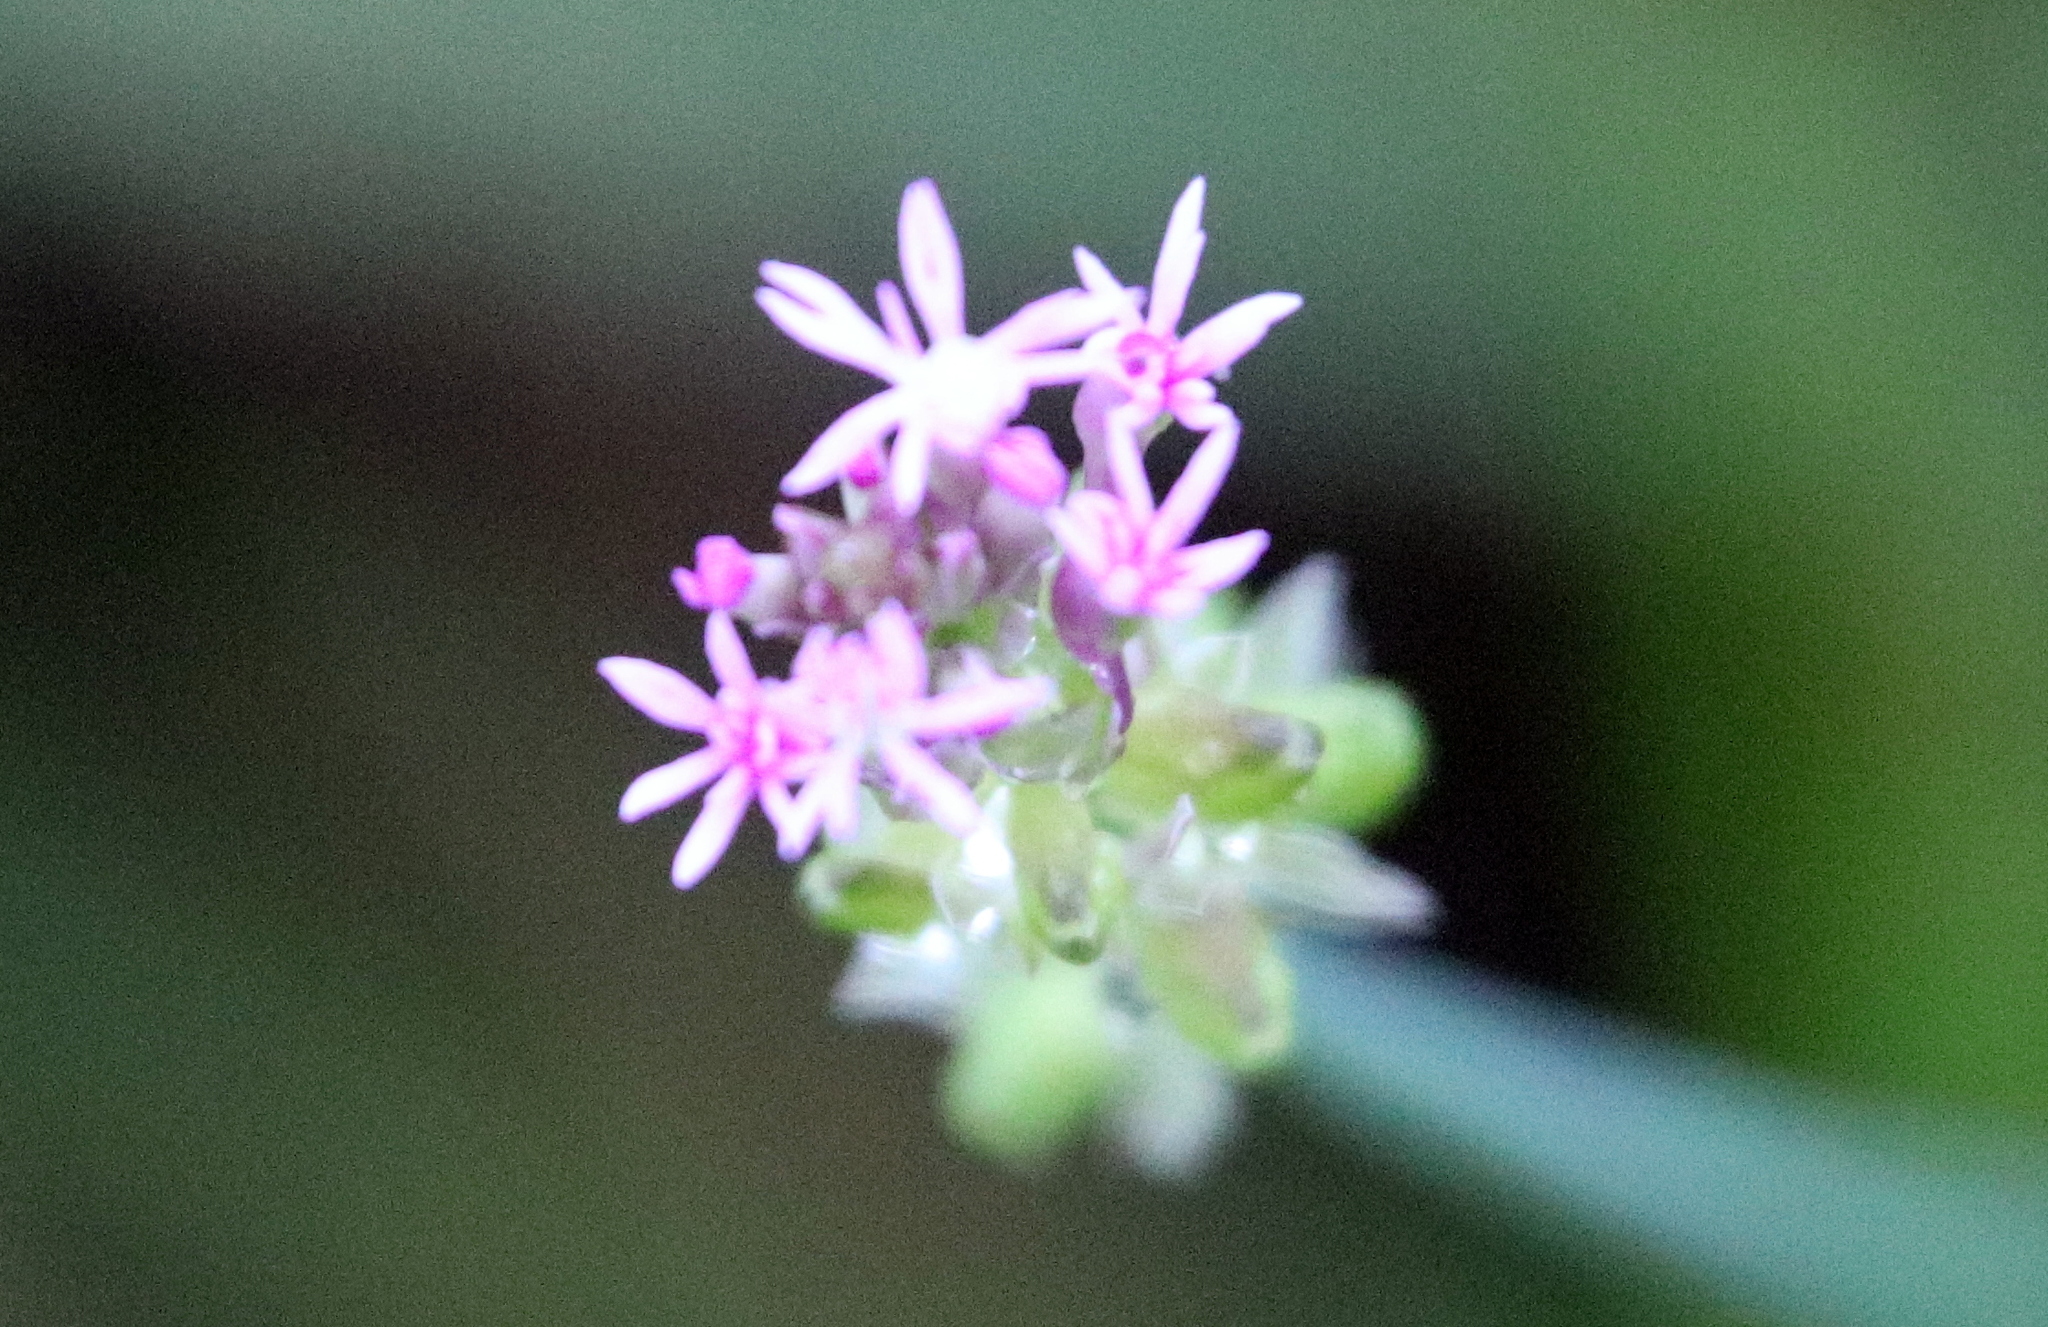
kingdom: Plantae
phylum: Tracheophyta
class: Magnoliopsida
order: Fabales
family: Polygalaceae
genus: Polygala
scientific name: Polygala incarnata
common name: Pink milkwort
